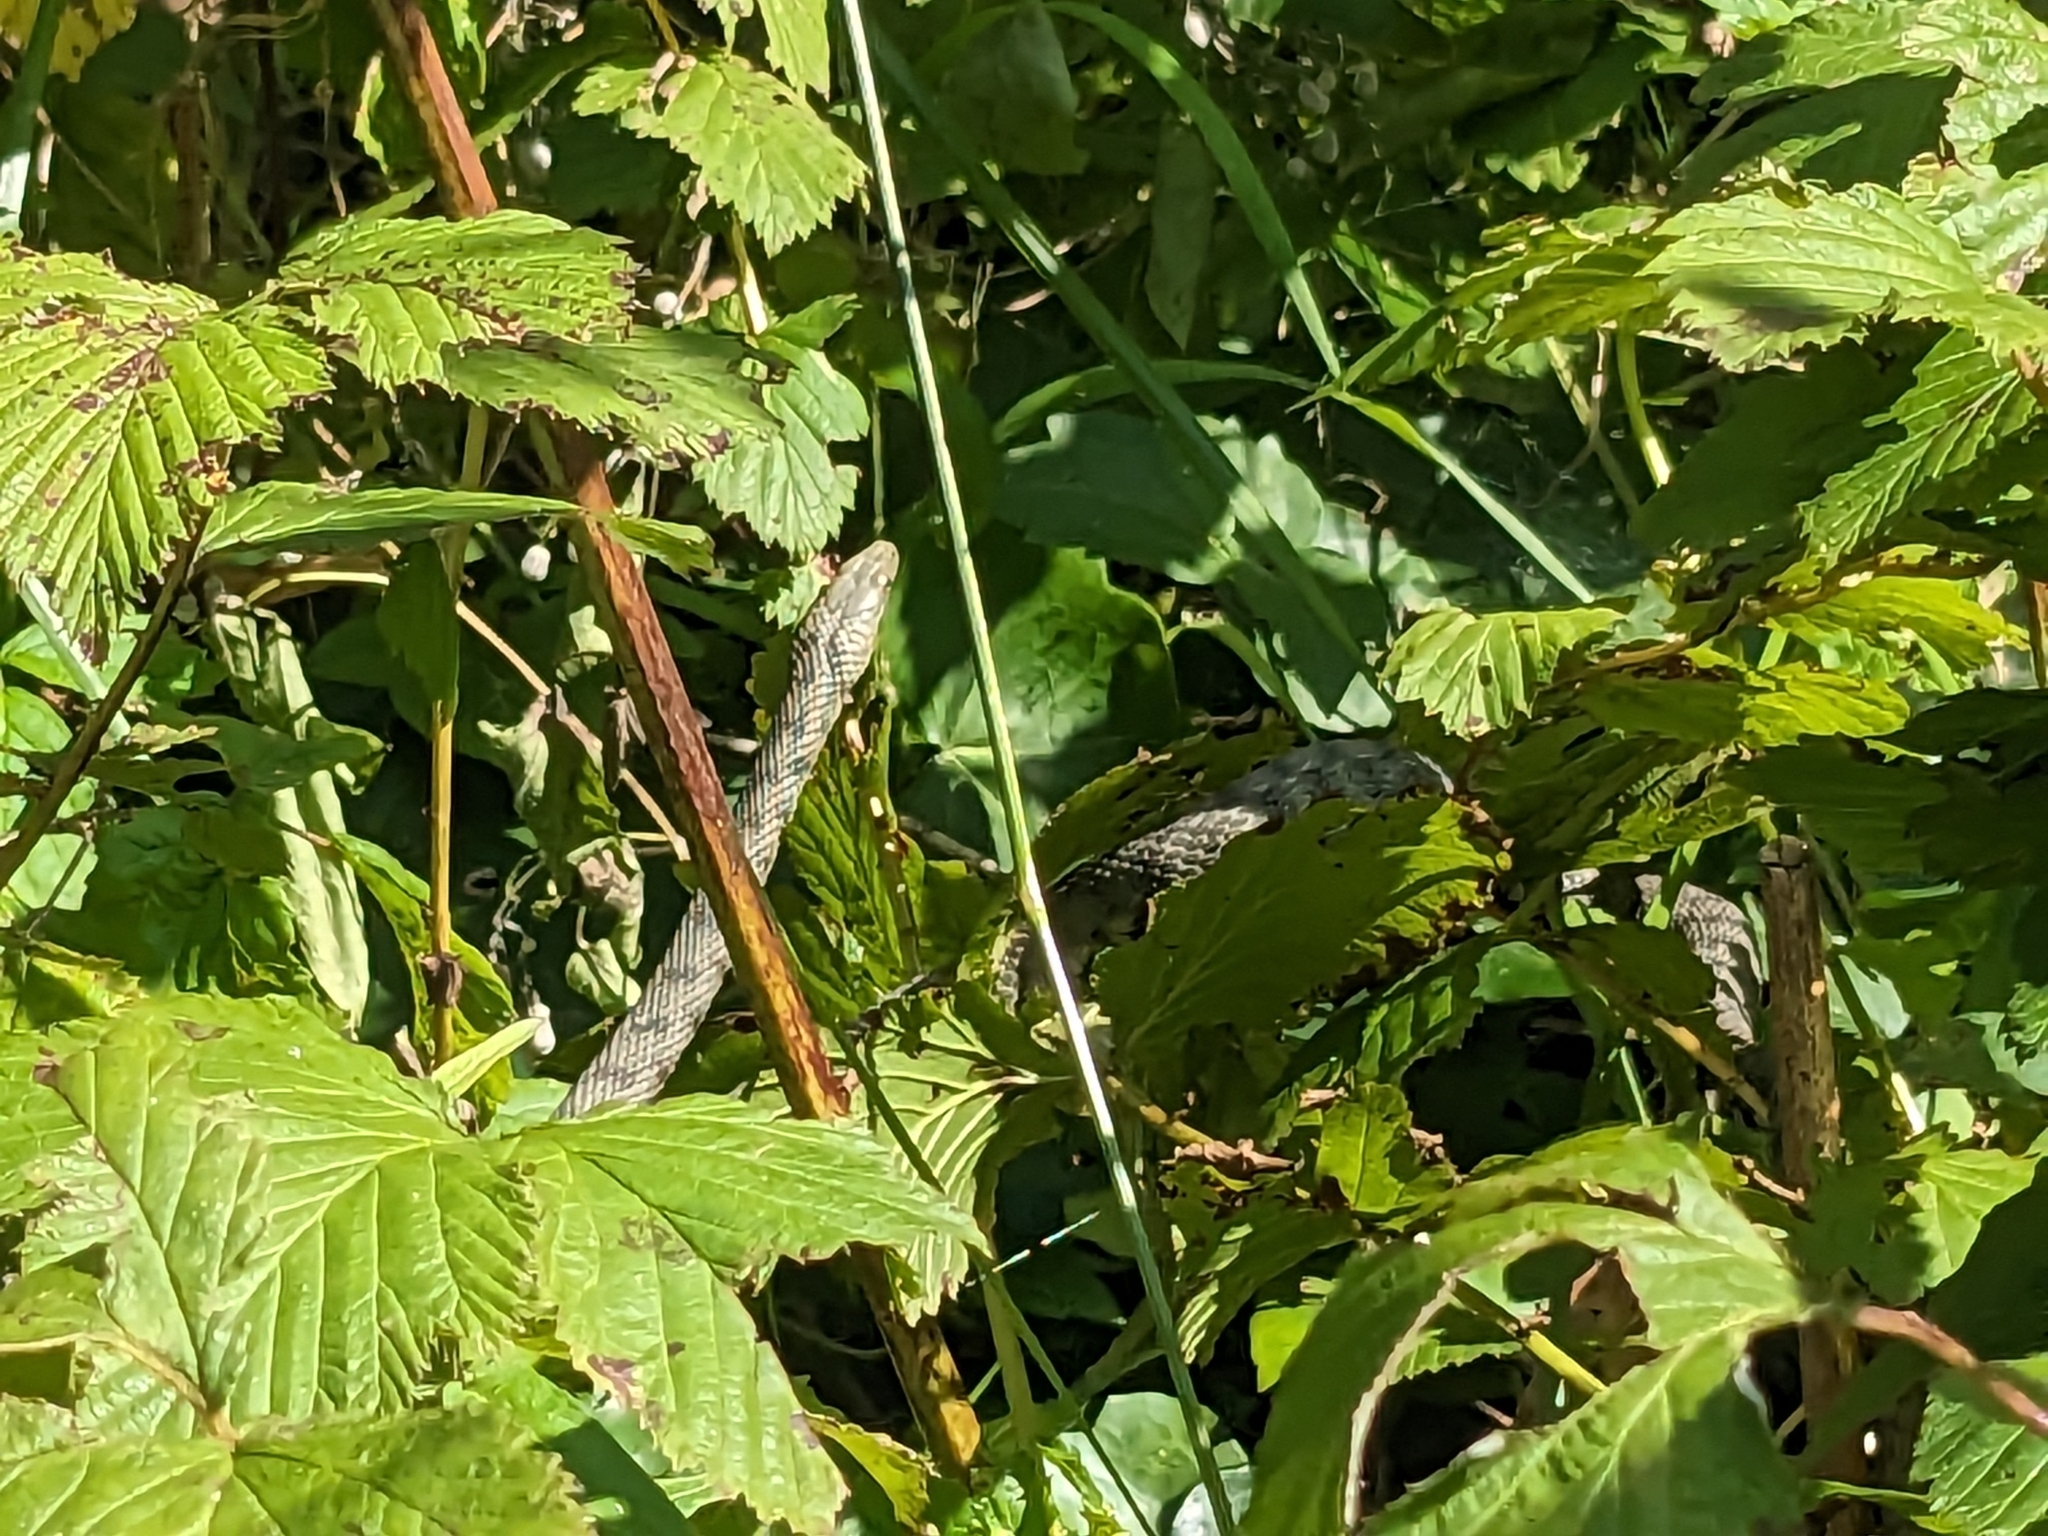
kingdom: Animalia
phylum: Chordata
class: Squamata
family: Colubridae
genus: Natrix
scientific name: Natrix tessellata
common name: Dice snake
